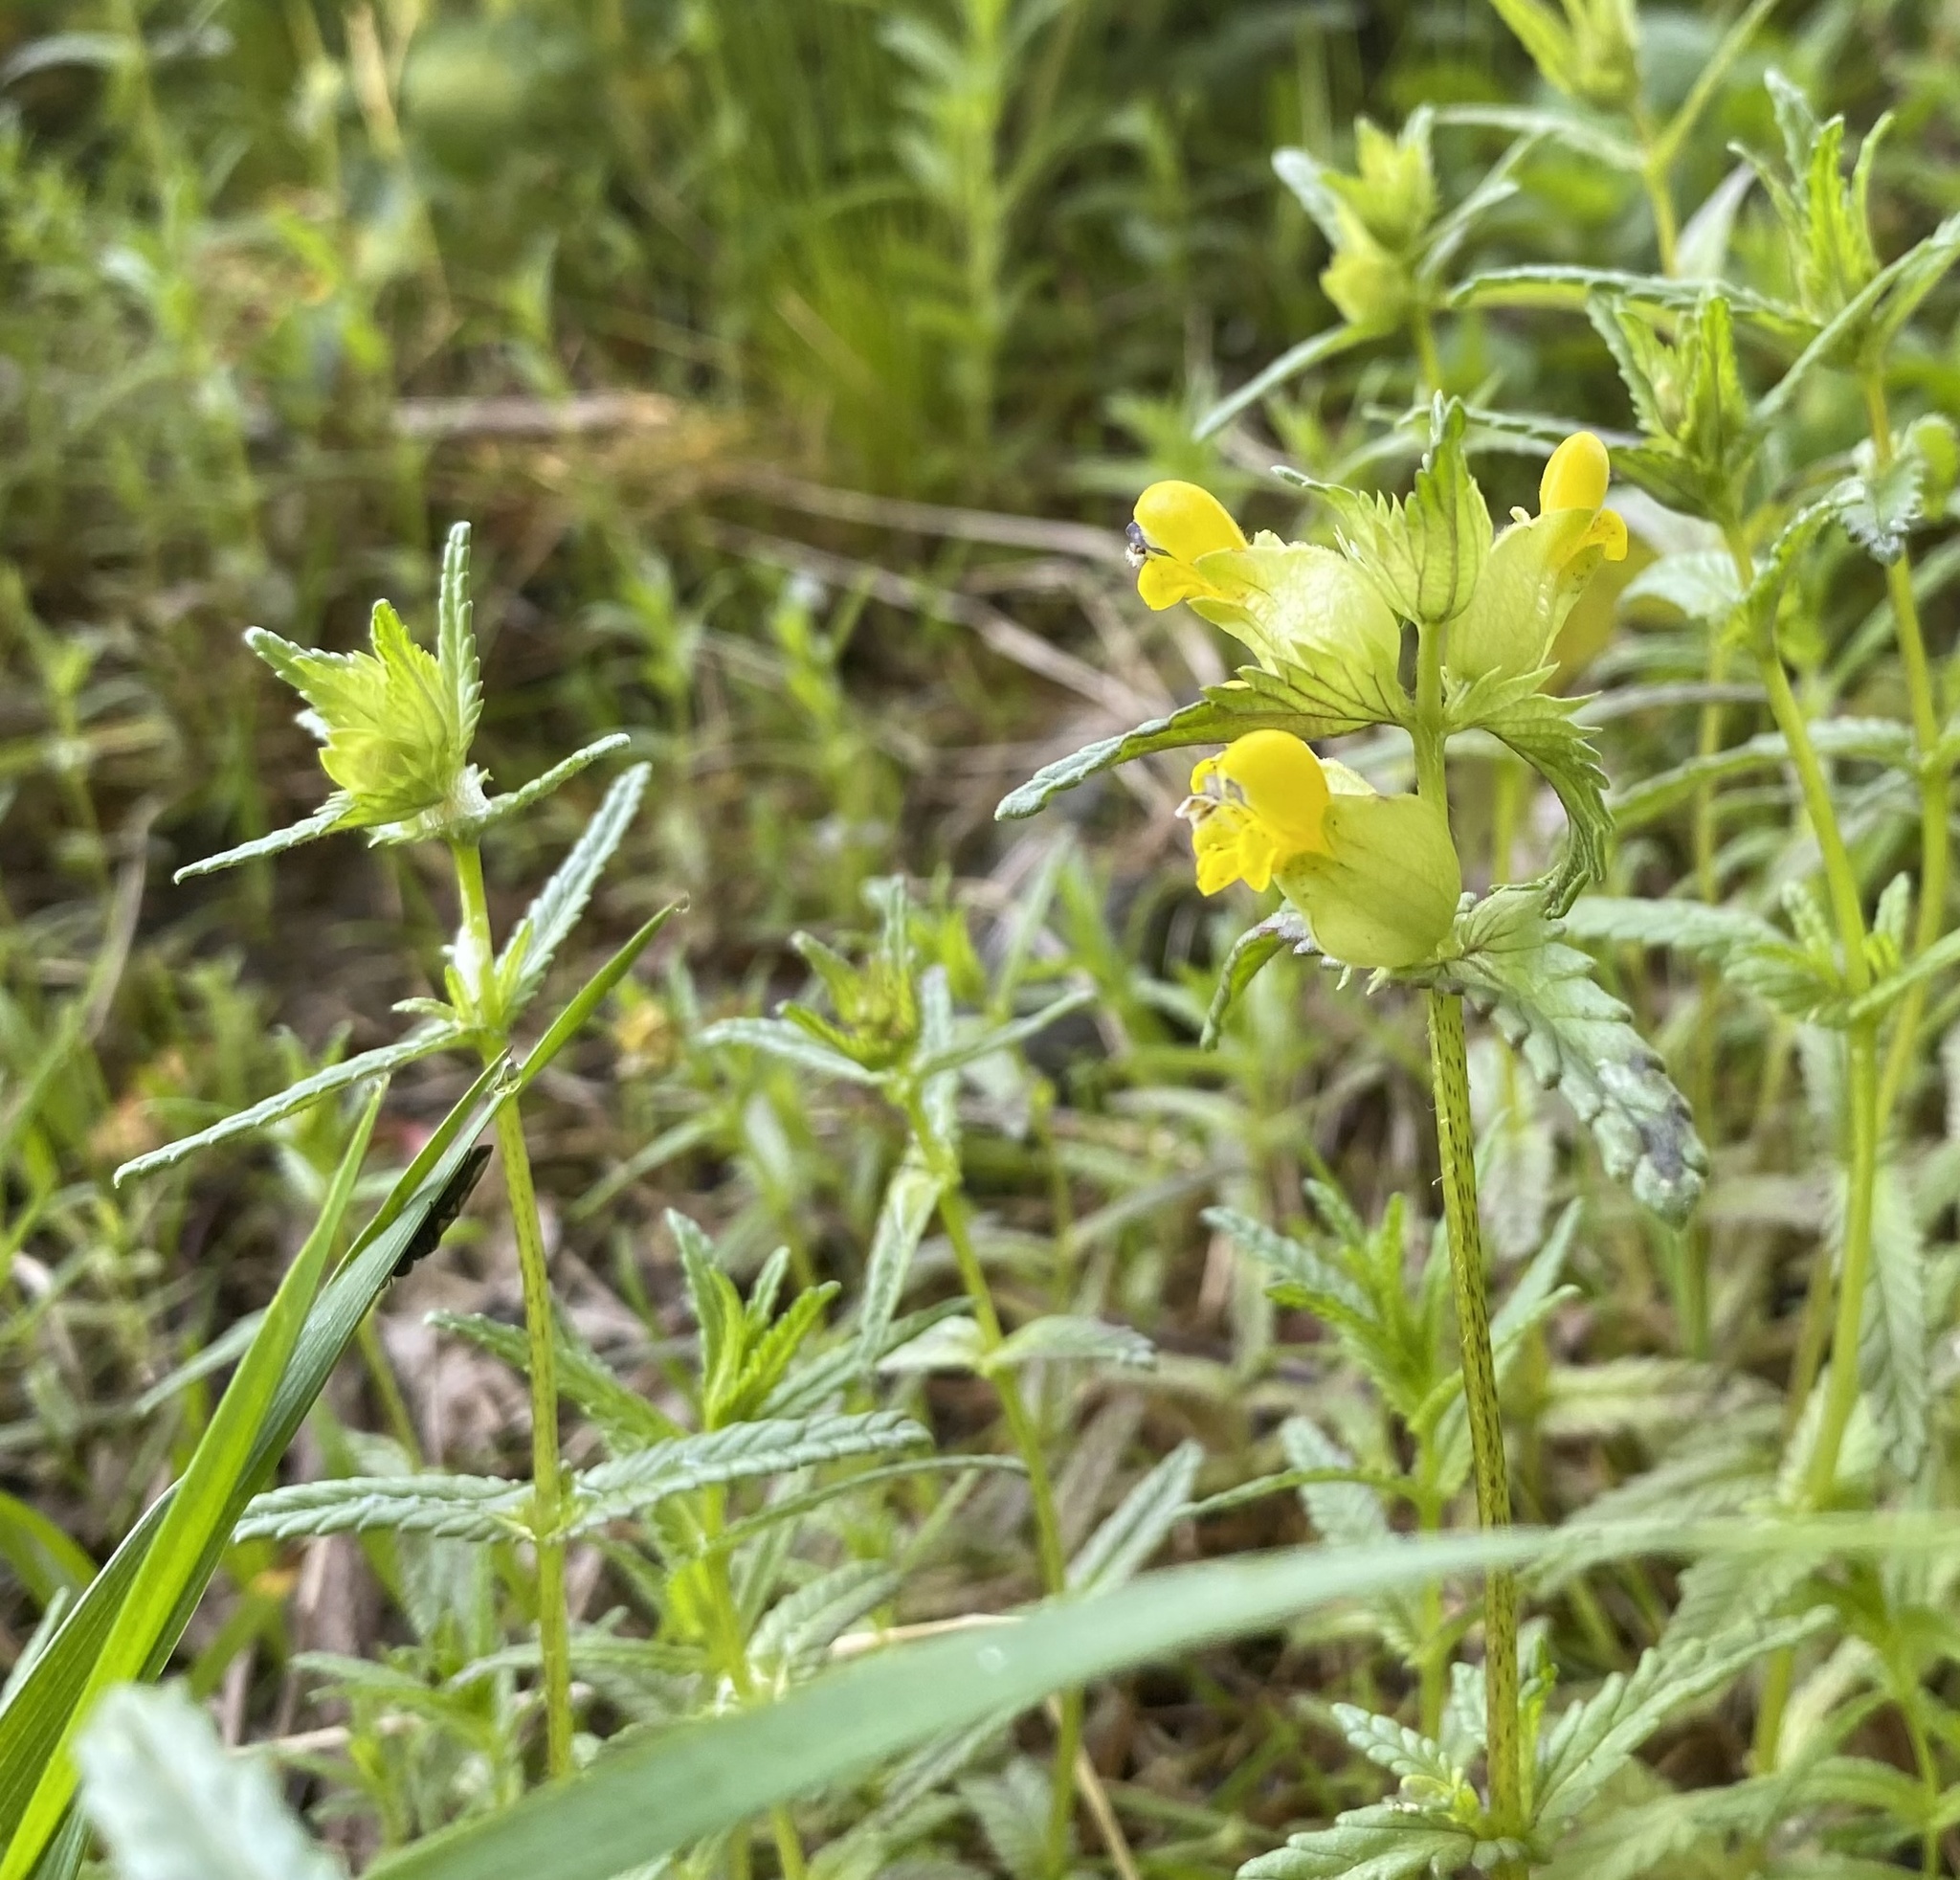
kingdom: Plantae
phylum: Tracheophyta
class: Magnoliopsida
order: Lamiales
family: Orobanchaceae
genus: Rhinanthus
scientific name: Rhinanthus minor
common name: Yellow-rattle
